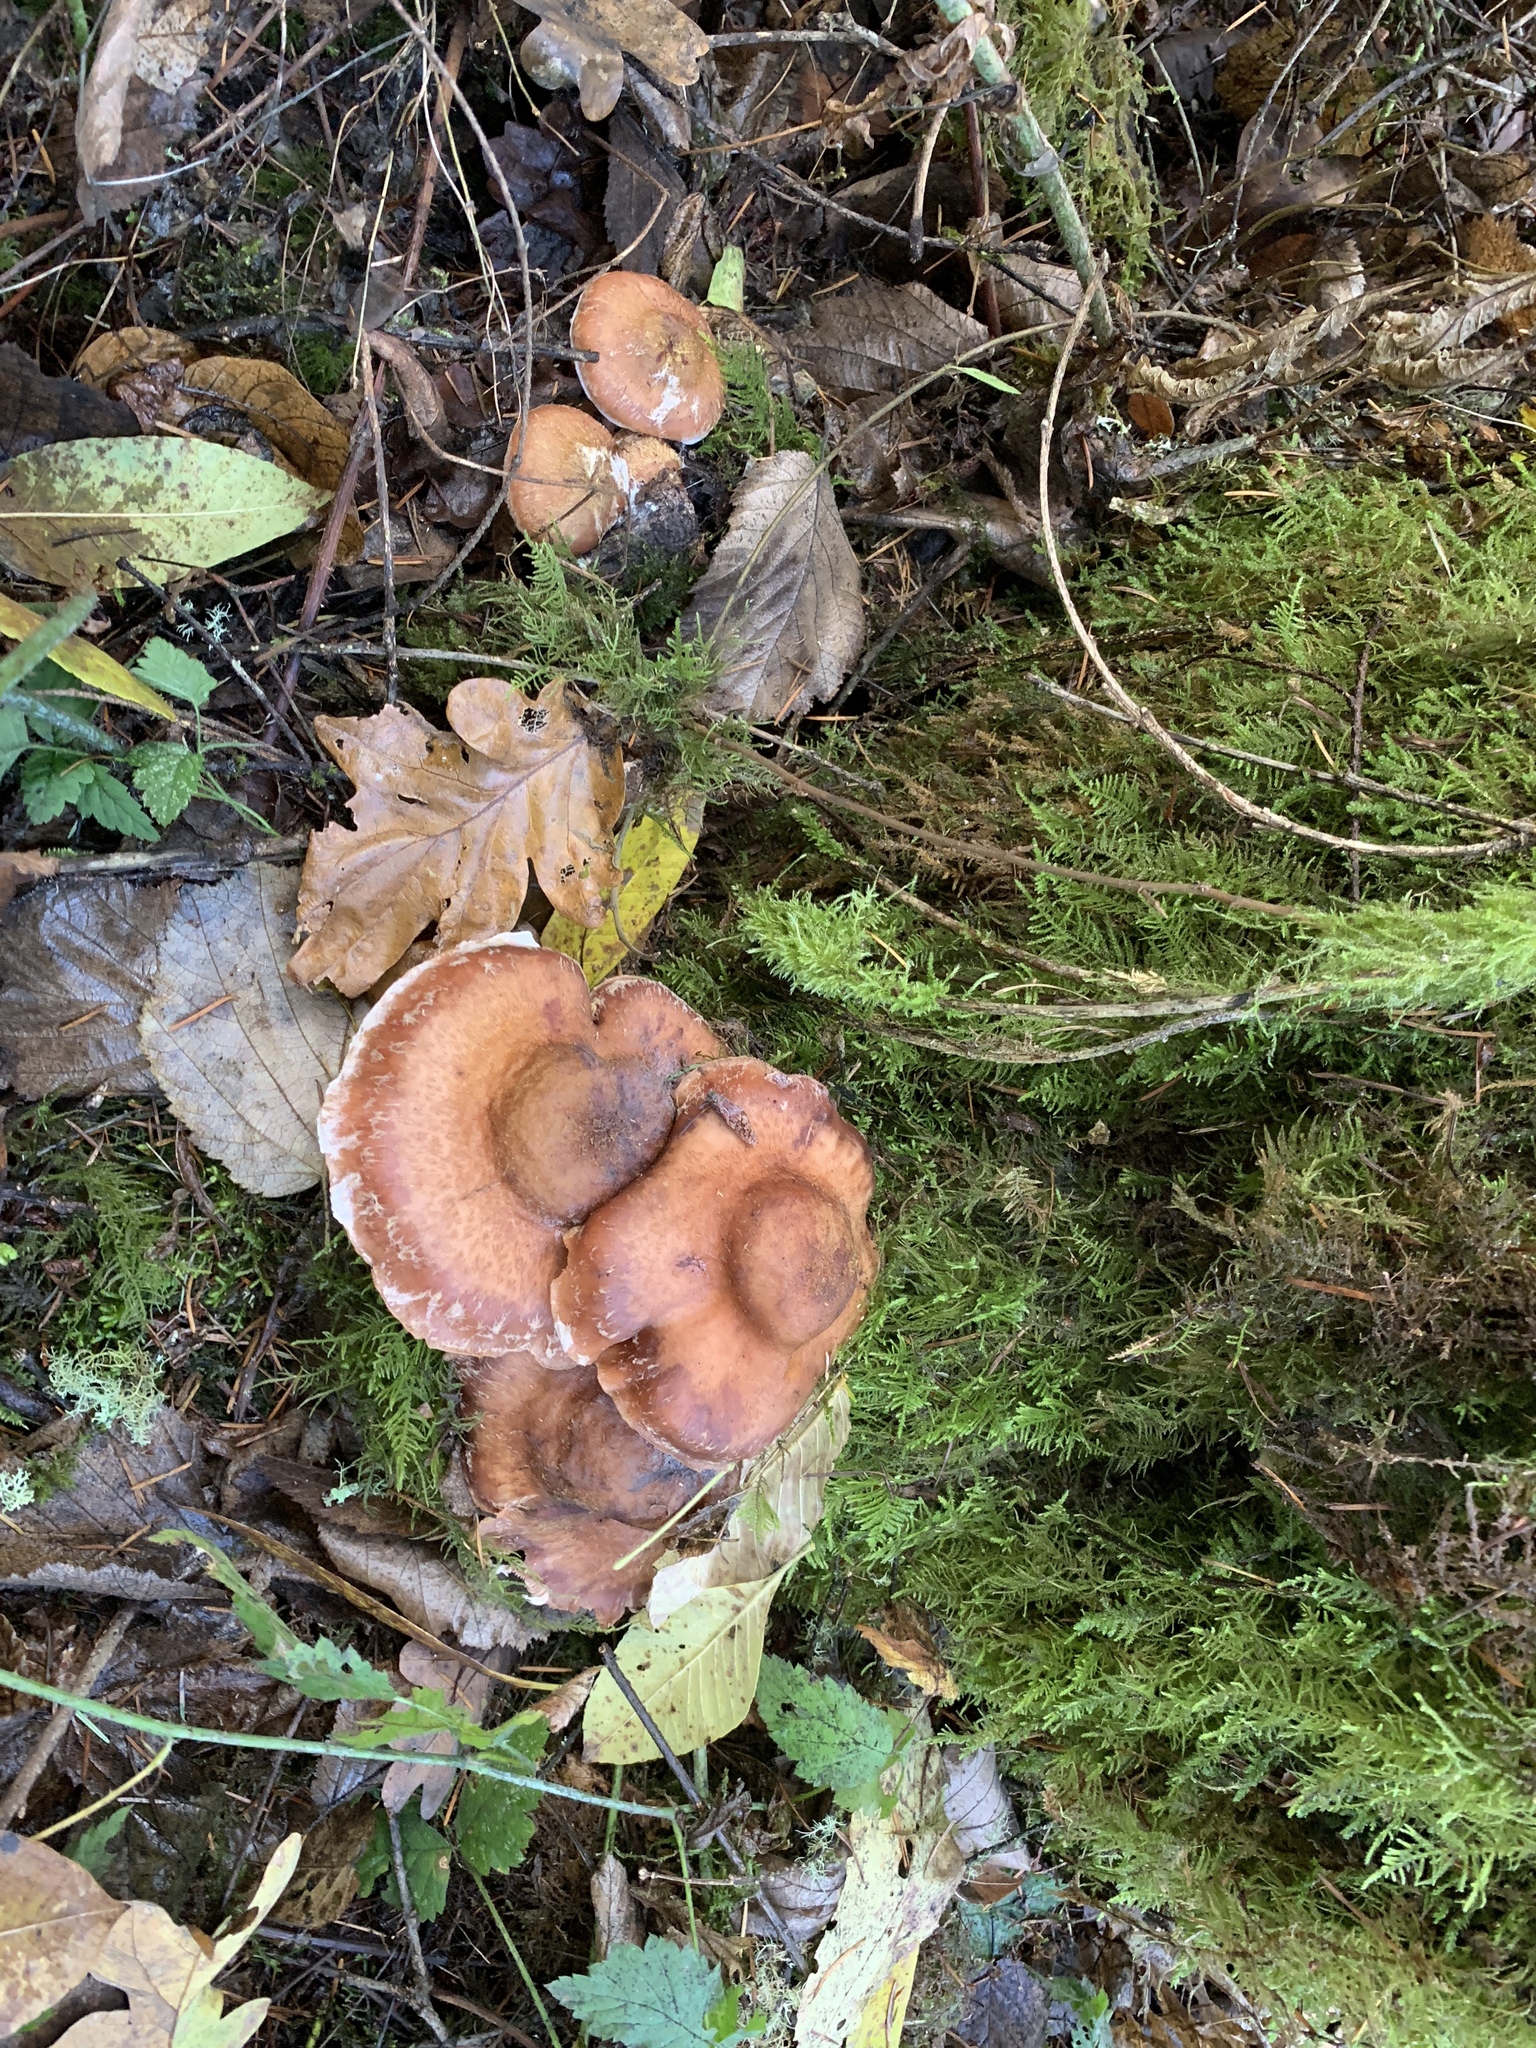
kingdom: Fungi
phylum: Basidiomycota
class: Agaricomycetes
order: Agaricales
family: Physalacriaceae
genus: Armillaria
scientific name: Armillaria mellea
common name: Honey fungus
